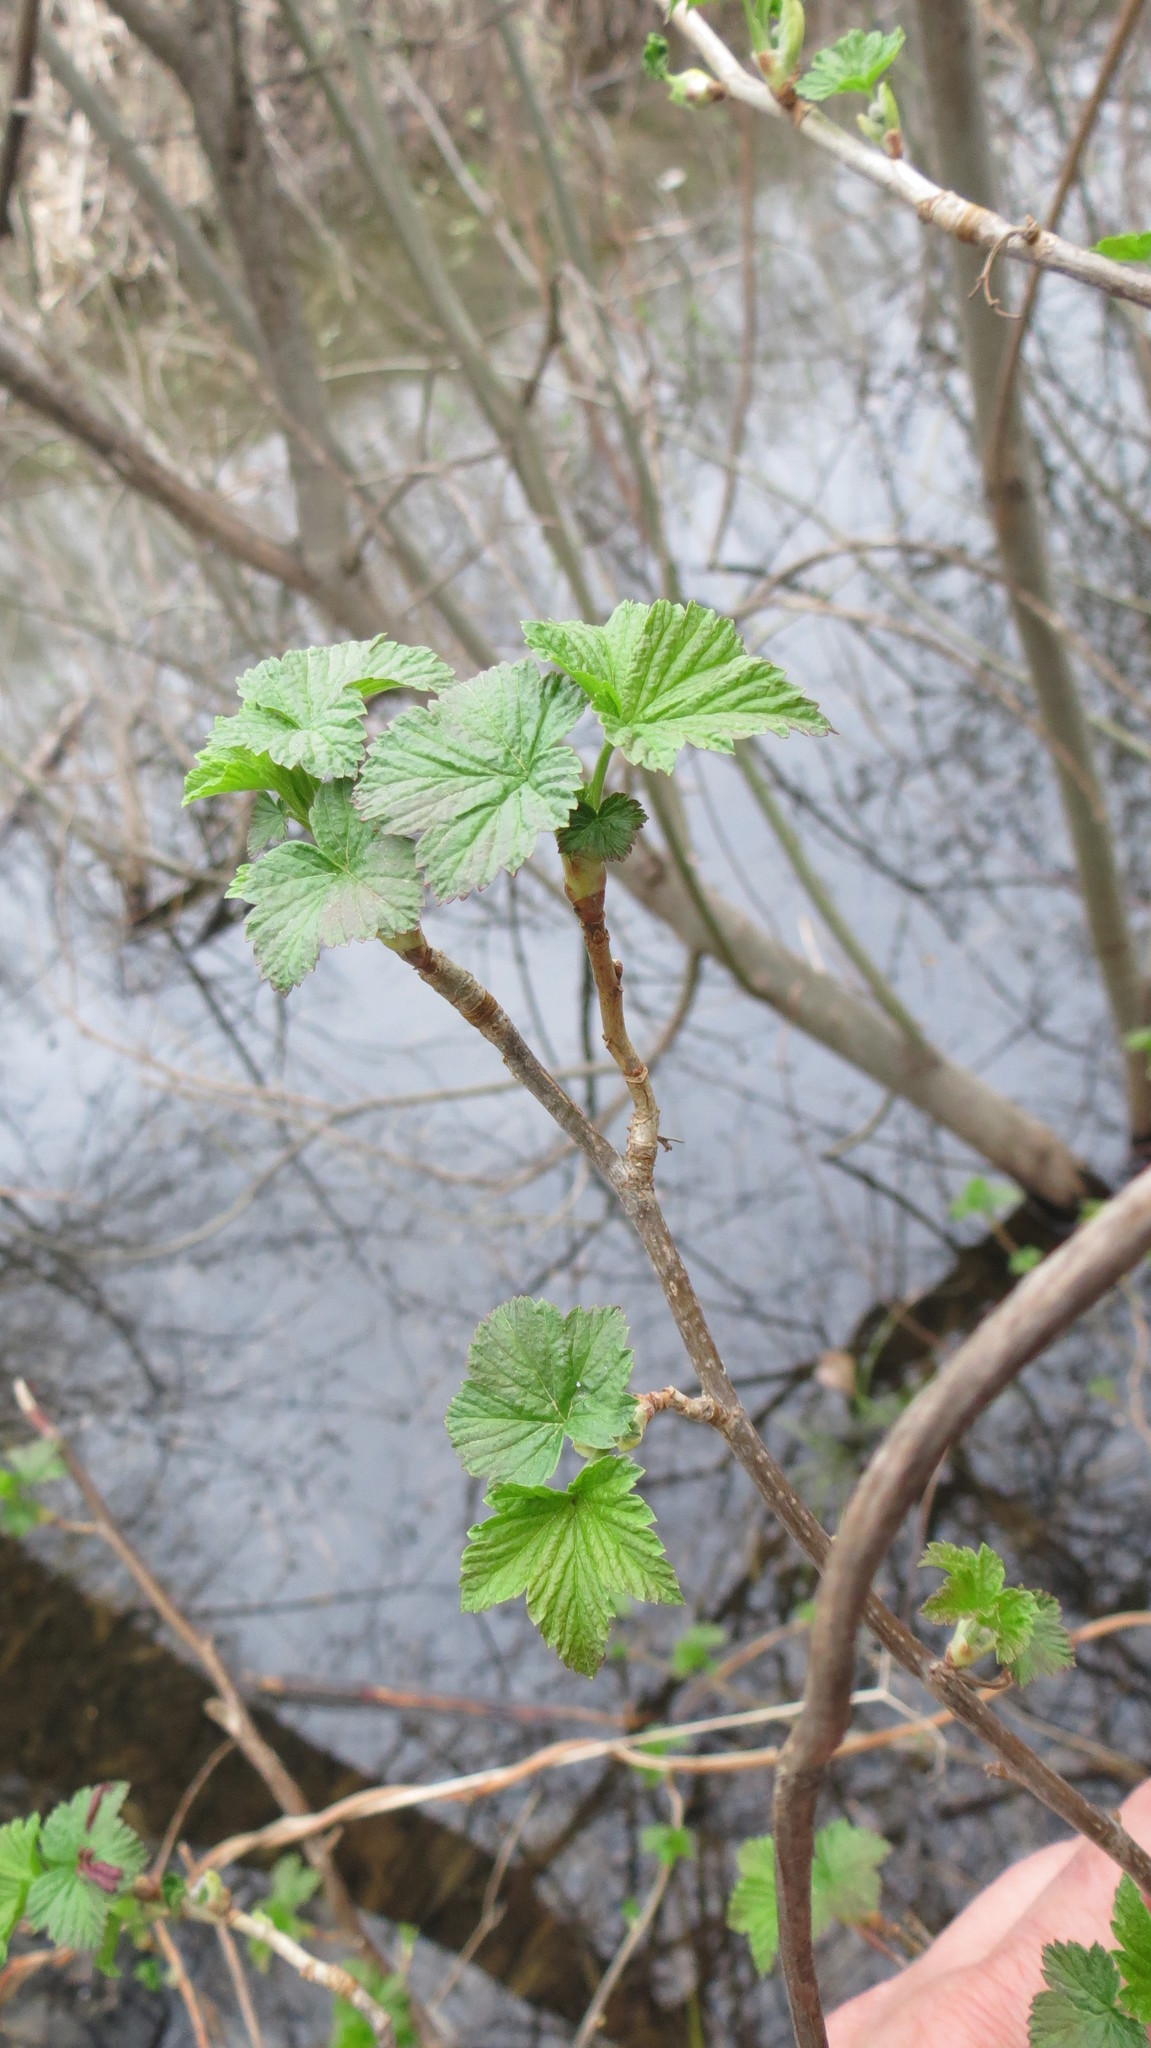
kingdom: Plantae
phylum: Tracheophyta
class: Magnoliopsida
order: Saxifragales
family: Grossulariaceae
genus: Ribes
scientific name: Ribes nigrum
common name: Black currant
